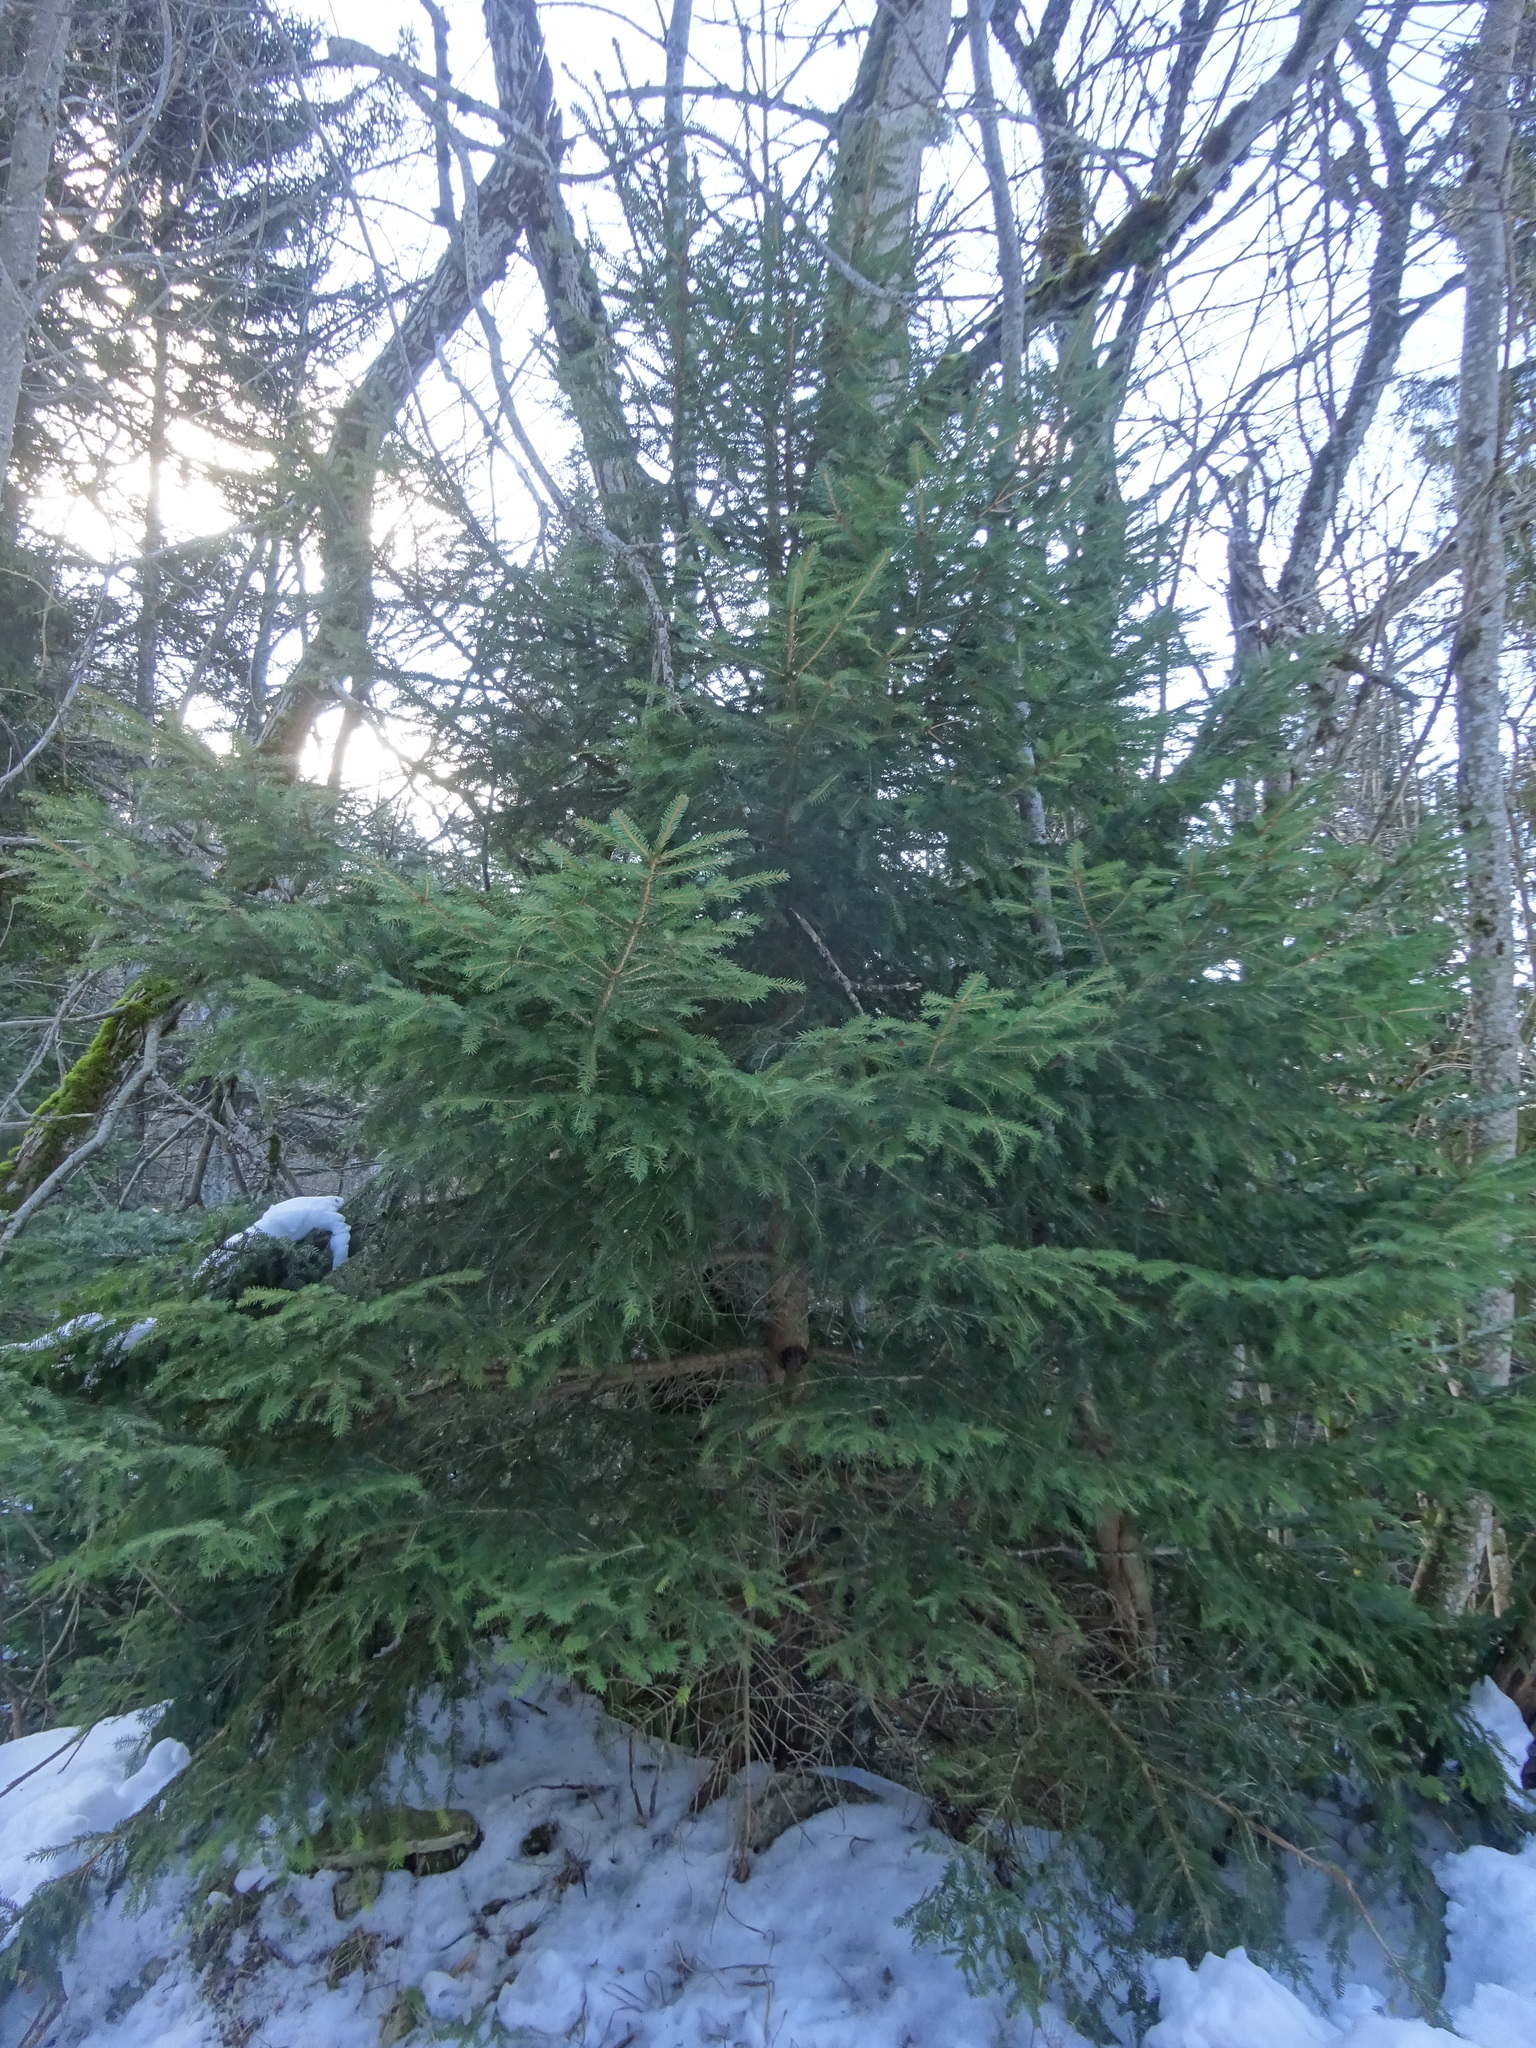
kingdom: Plantae
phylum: Tracheophyta
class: Pinopsida
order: Pinales
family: Pinaceae
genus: Picea
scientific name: Picea abies
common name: Norway spruce
